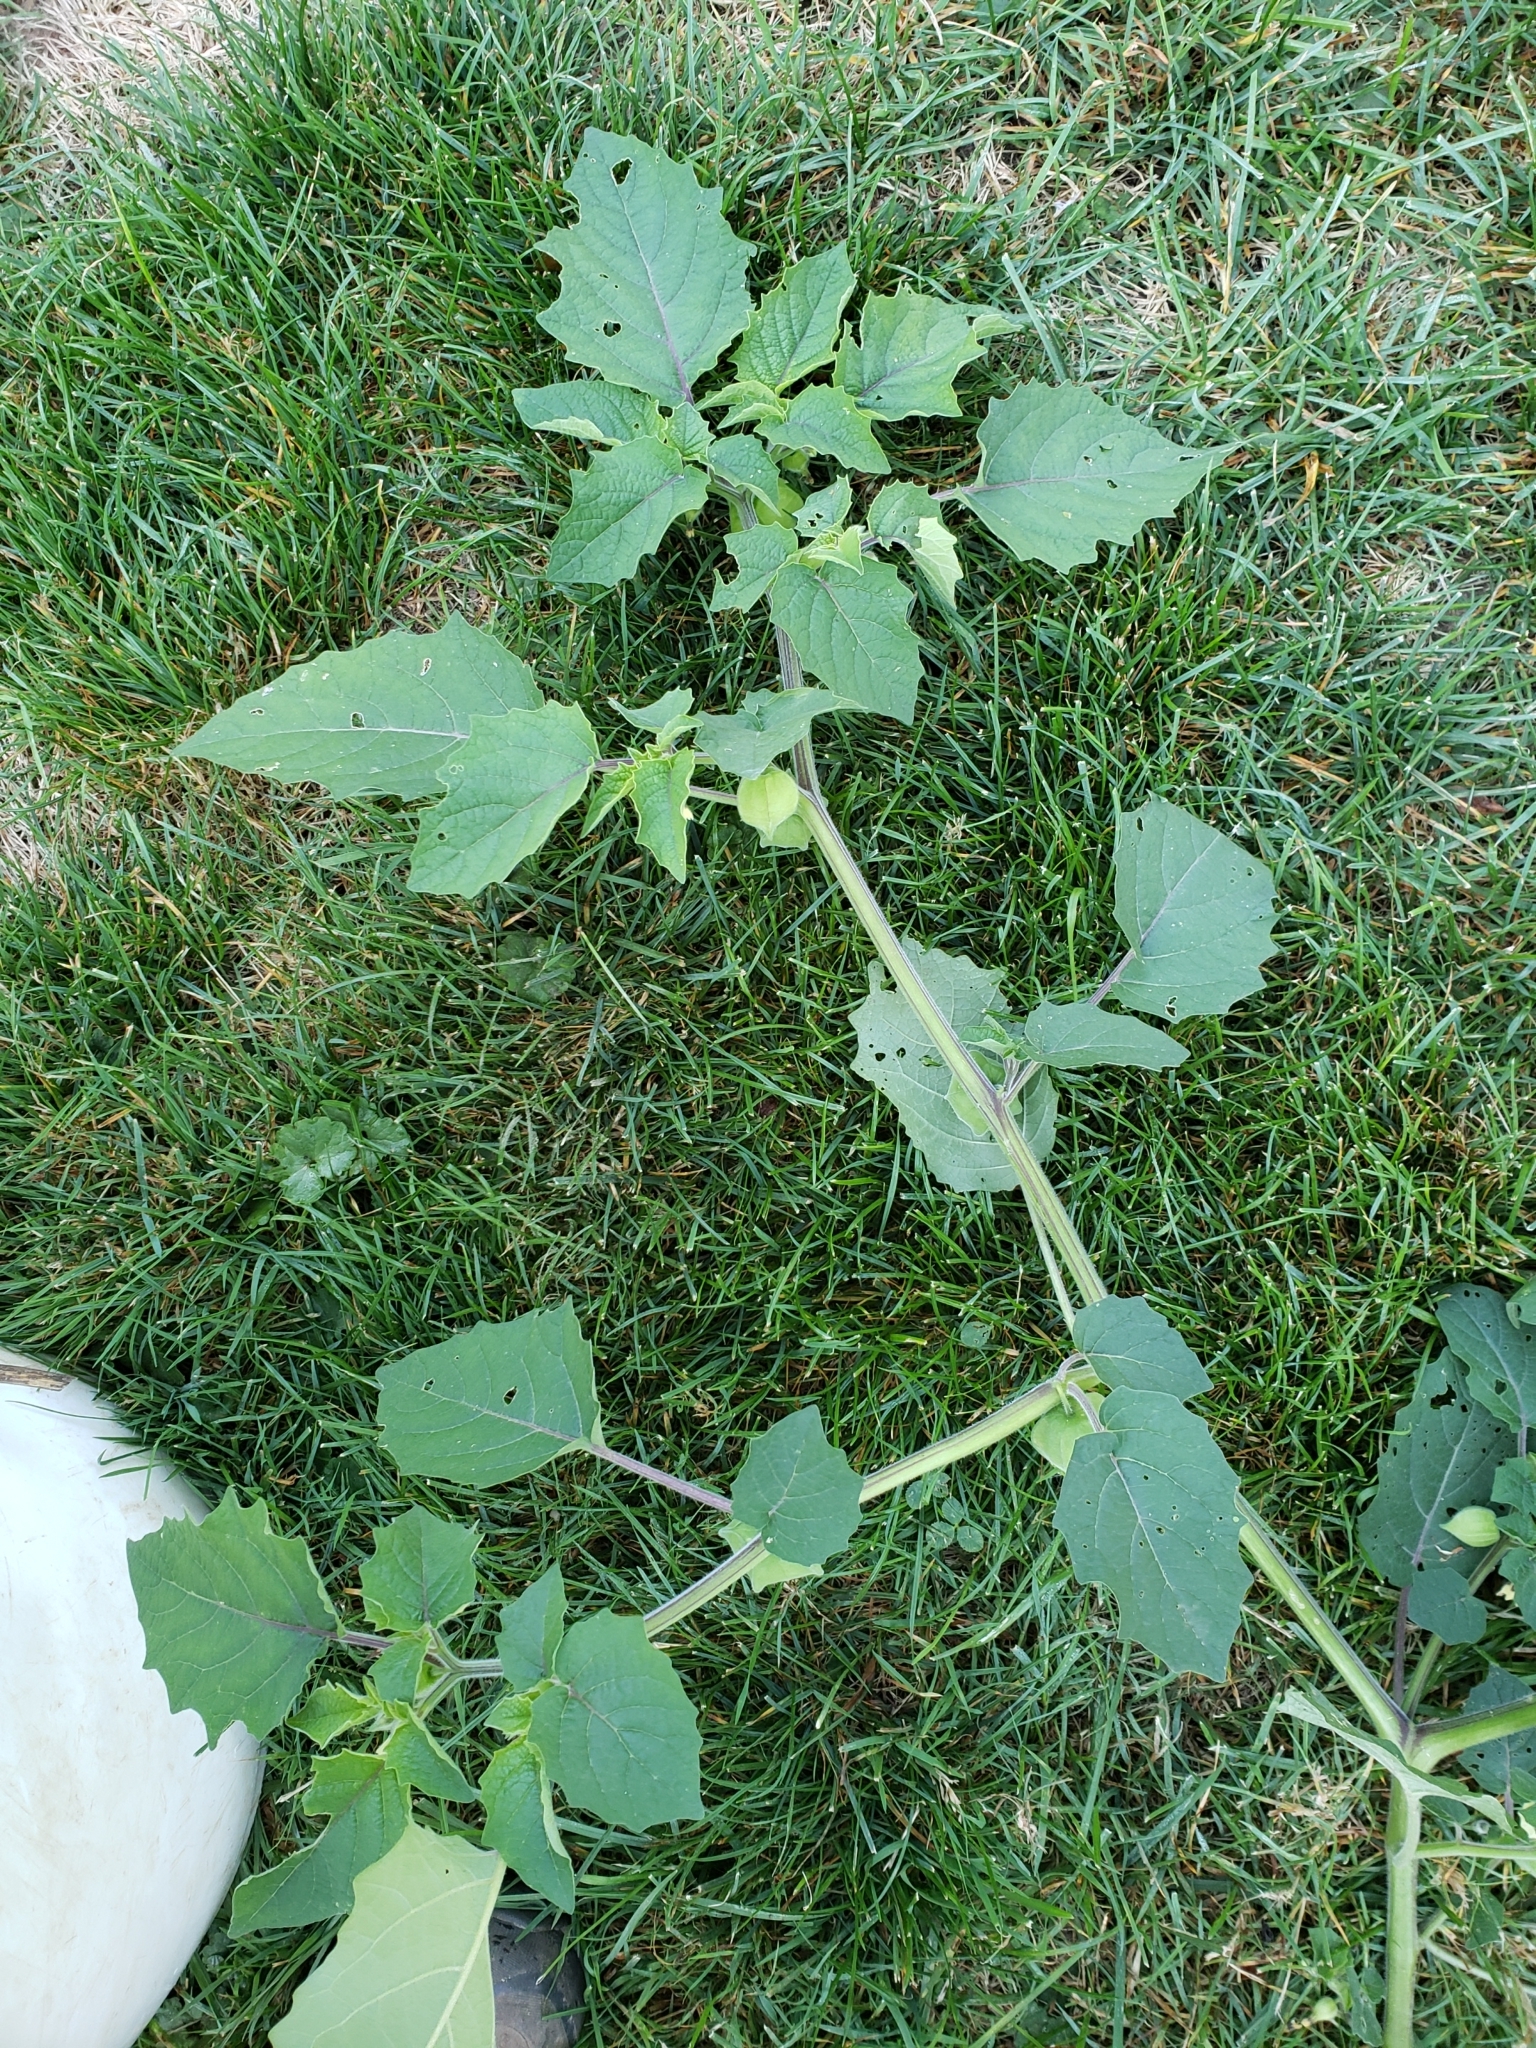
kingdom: Plantae
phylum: Tracheophyta
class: Magnoliopsida
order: Solanales
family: Solanaceae
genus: Physalis
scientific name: Physalis grisea
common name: Dwarf cape-gooseberry
